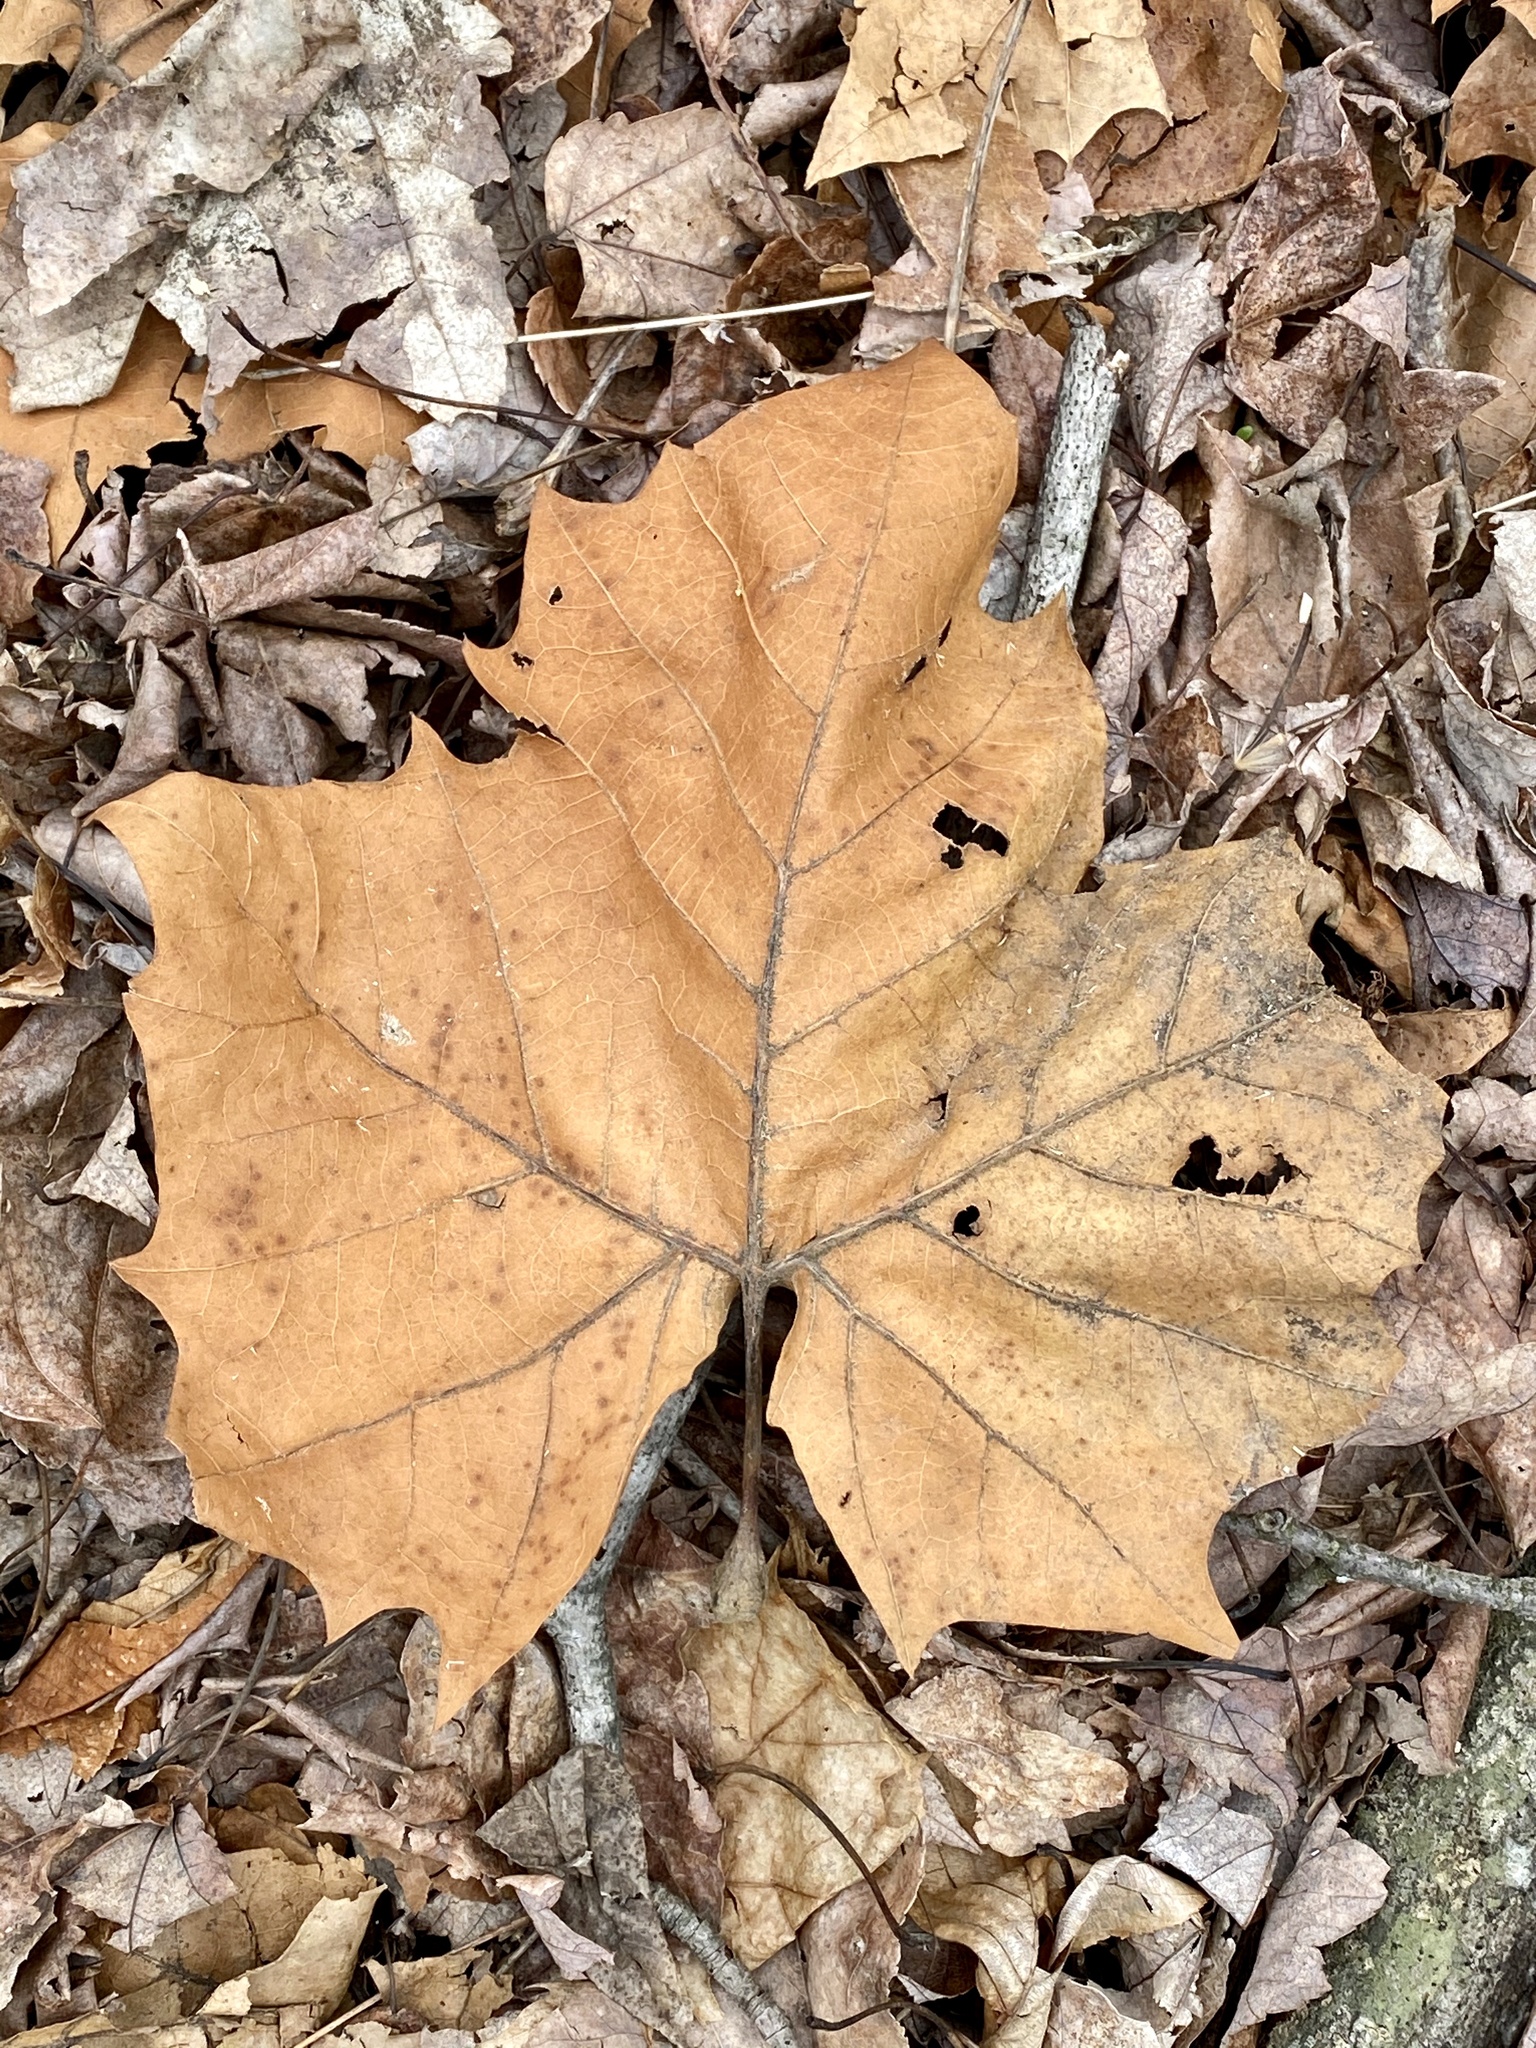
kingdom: Plantae
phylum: Tracheophyta
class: Magnoliopsida
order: Proteales
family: Platanaceae
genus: Platanus
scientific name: Platanus occidentalis
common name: American sycamore
